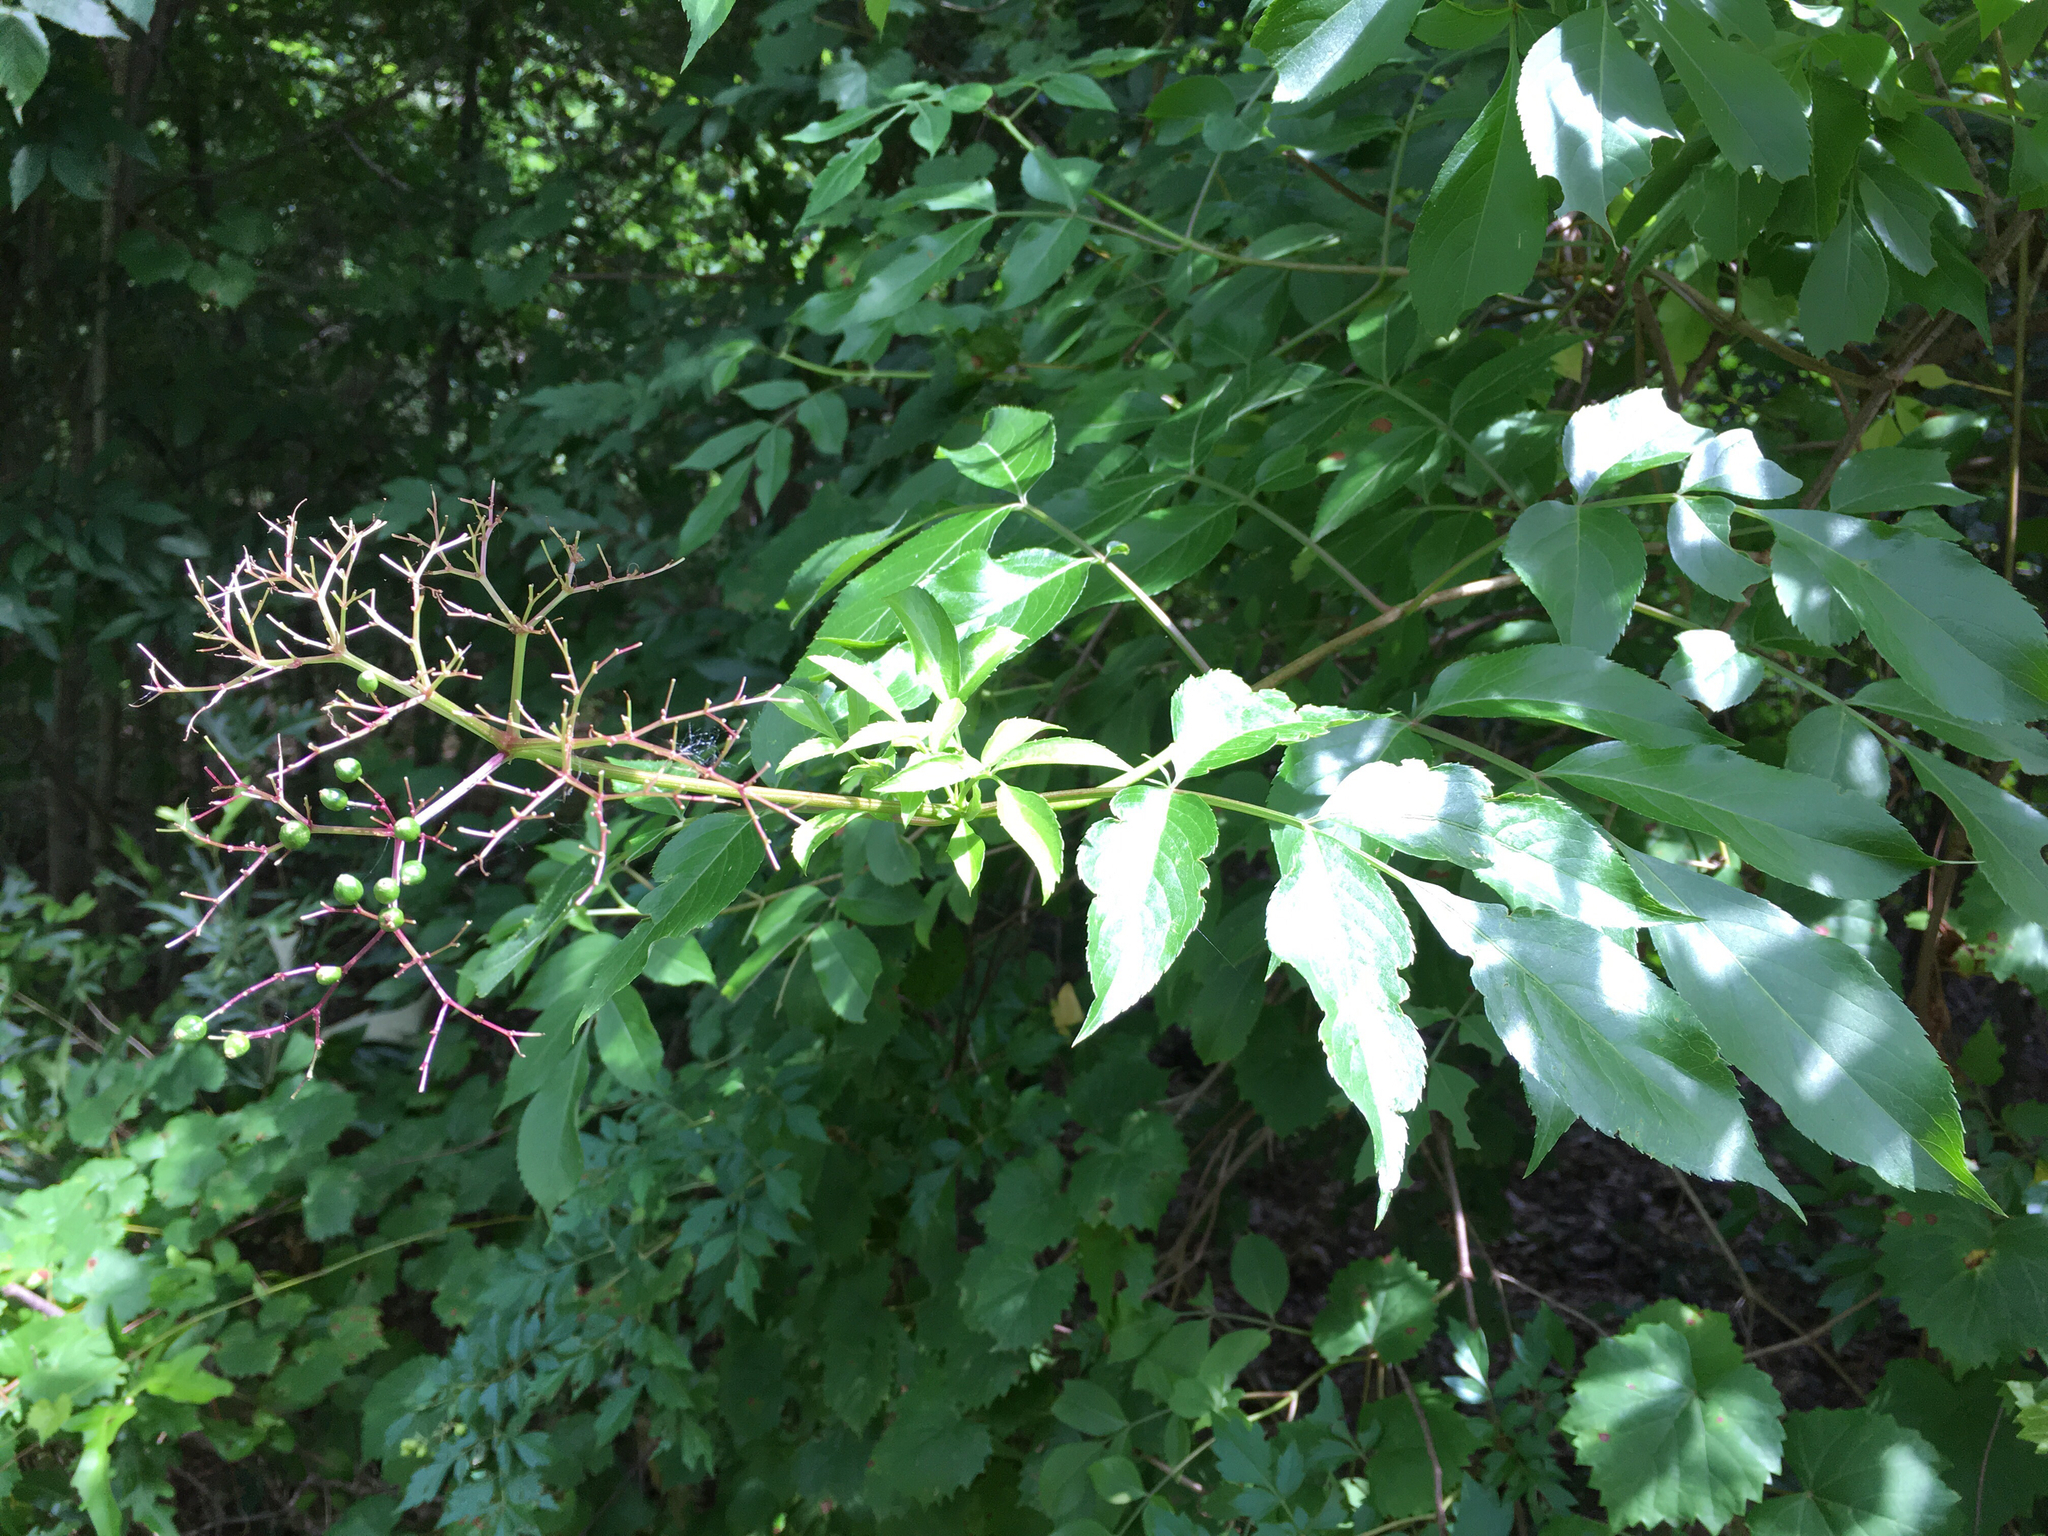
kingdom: Plantae
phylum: Tracheophyta
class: Magnoliopsida
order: Dipsacales
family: Viburnaceae
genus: Sambucus
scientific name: Sambucus canadensis
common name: American elder
